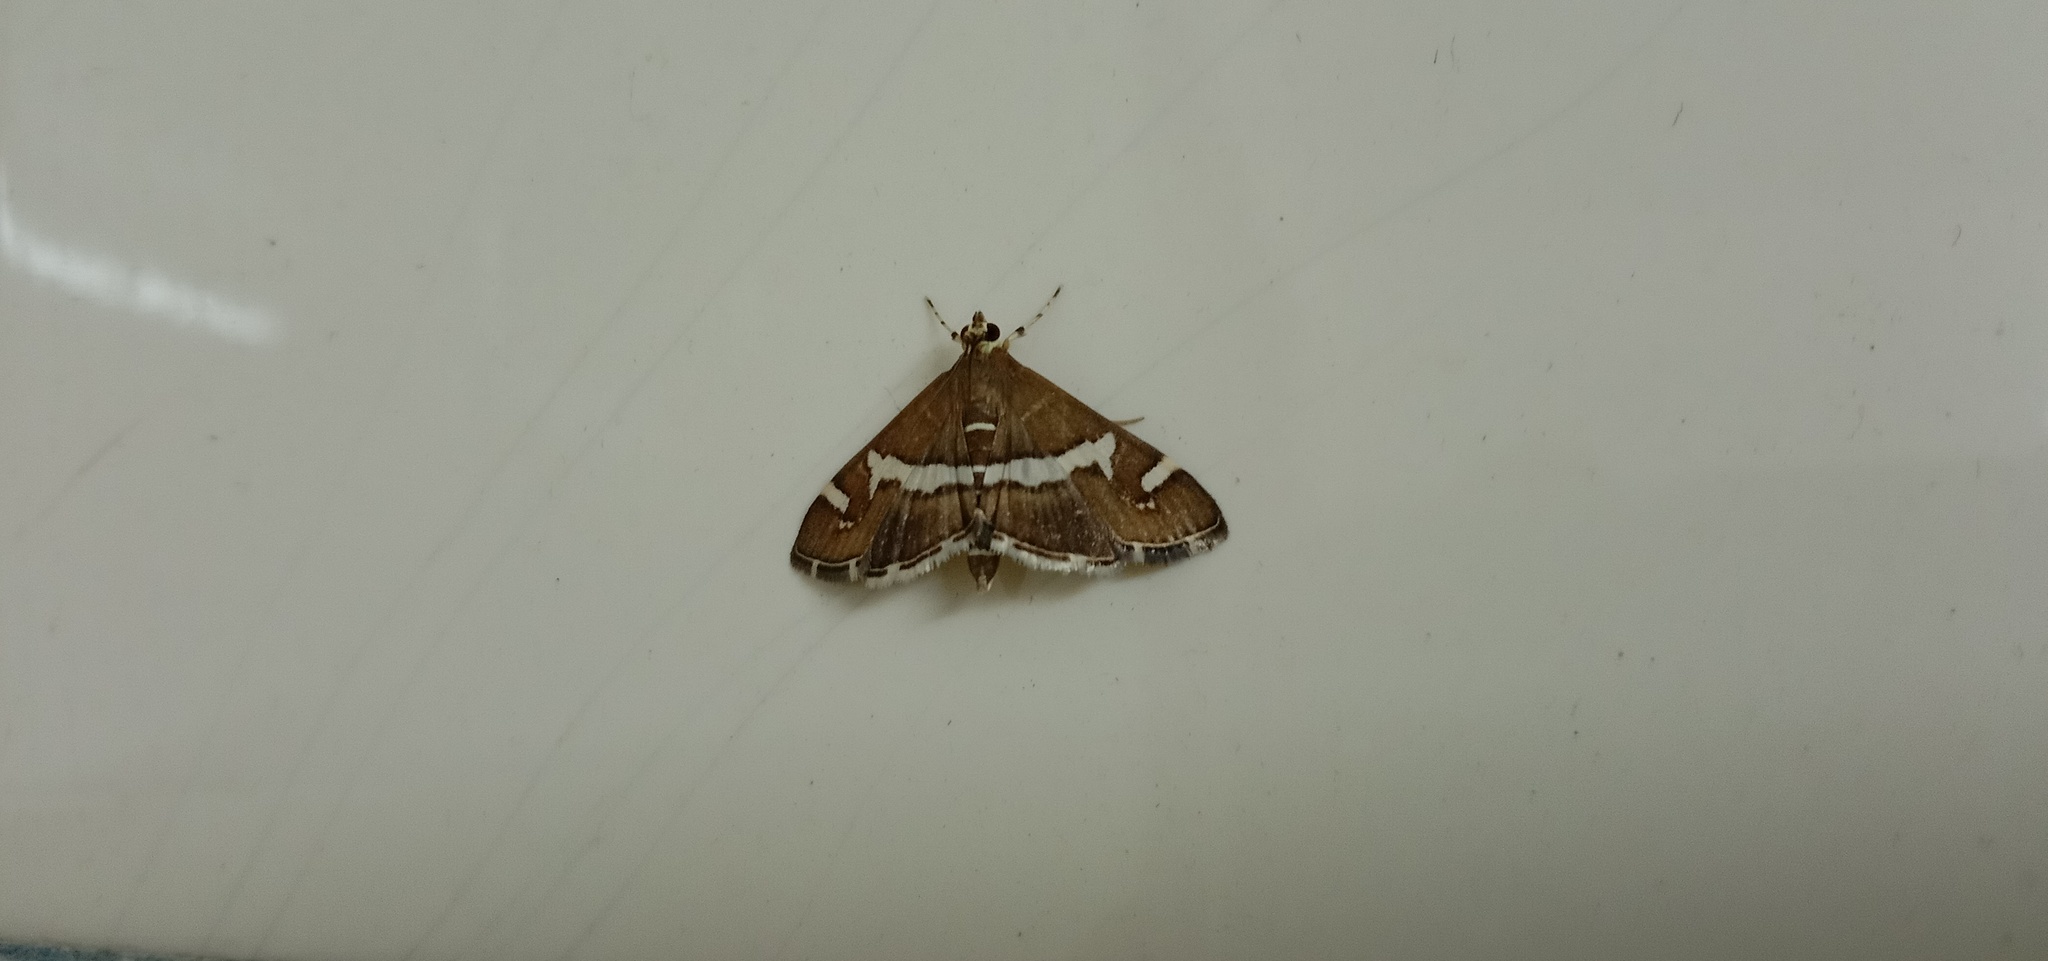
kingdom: Animalia
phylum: Arthropoda
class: Insecta
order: Lepidoptera
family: Crambidae
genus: Spoladea
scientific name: Spoladea recurvalis
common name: Beet webworm moth
